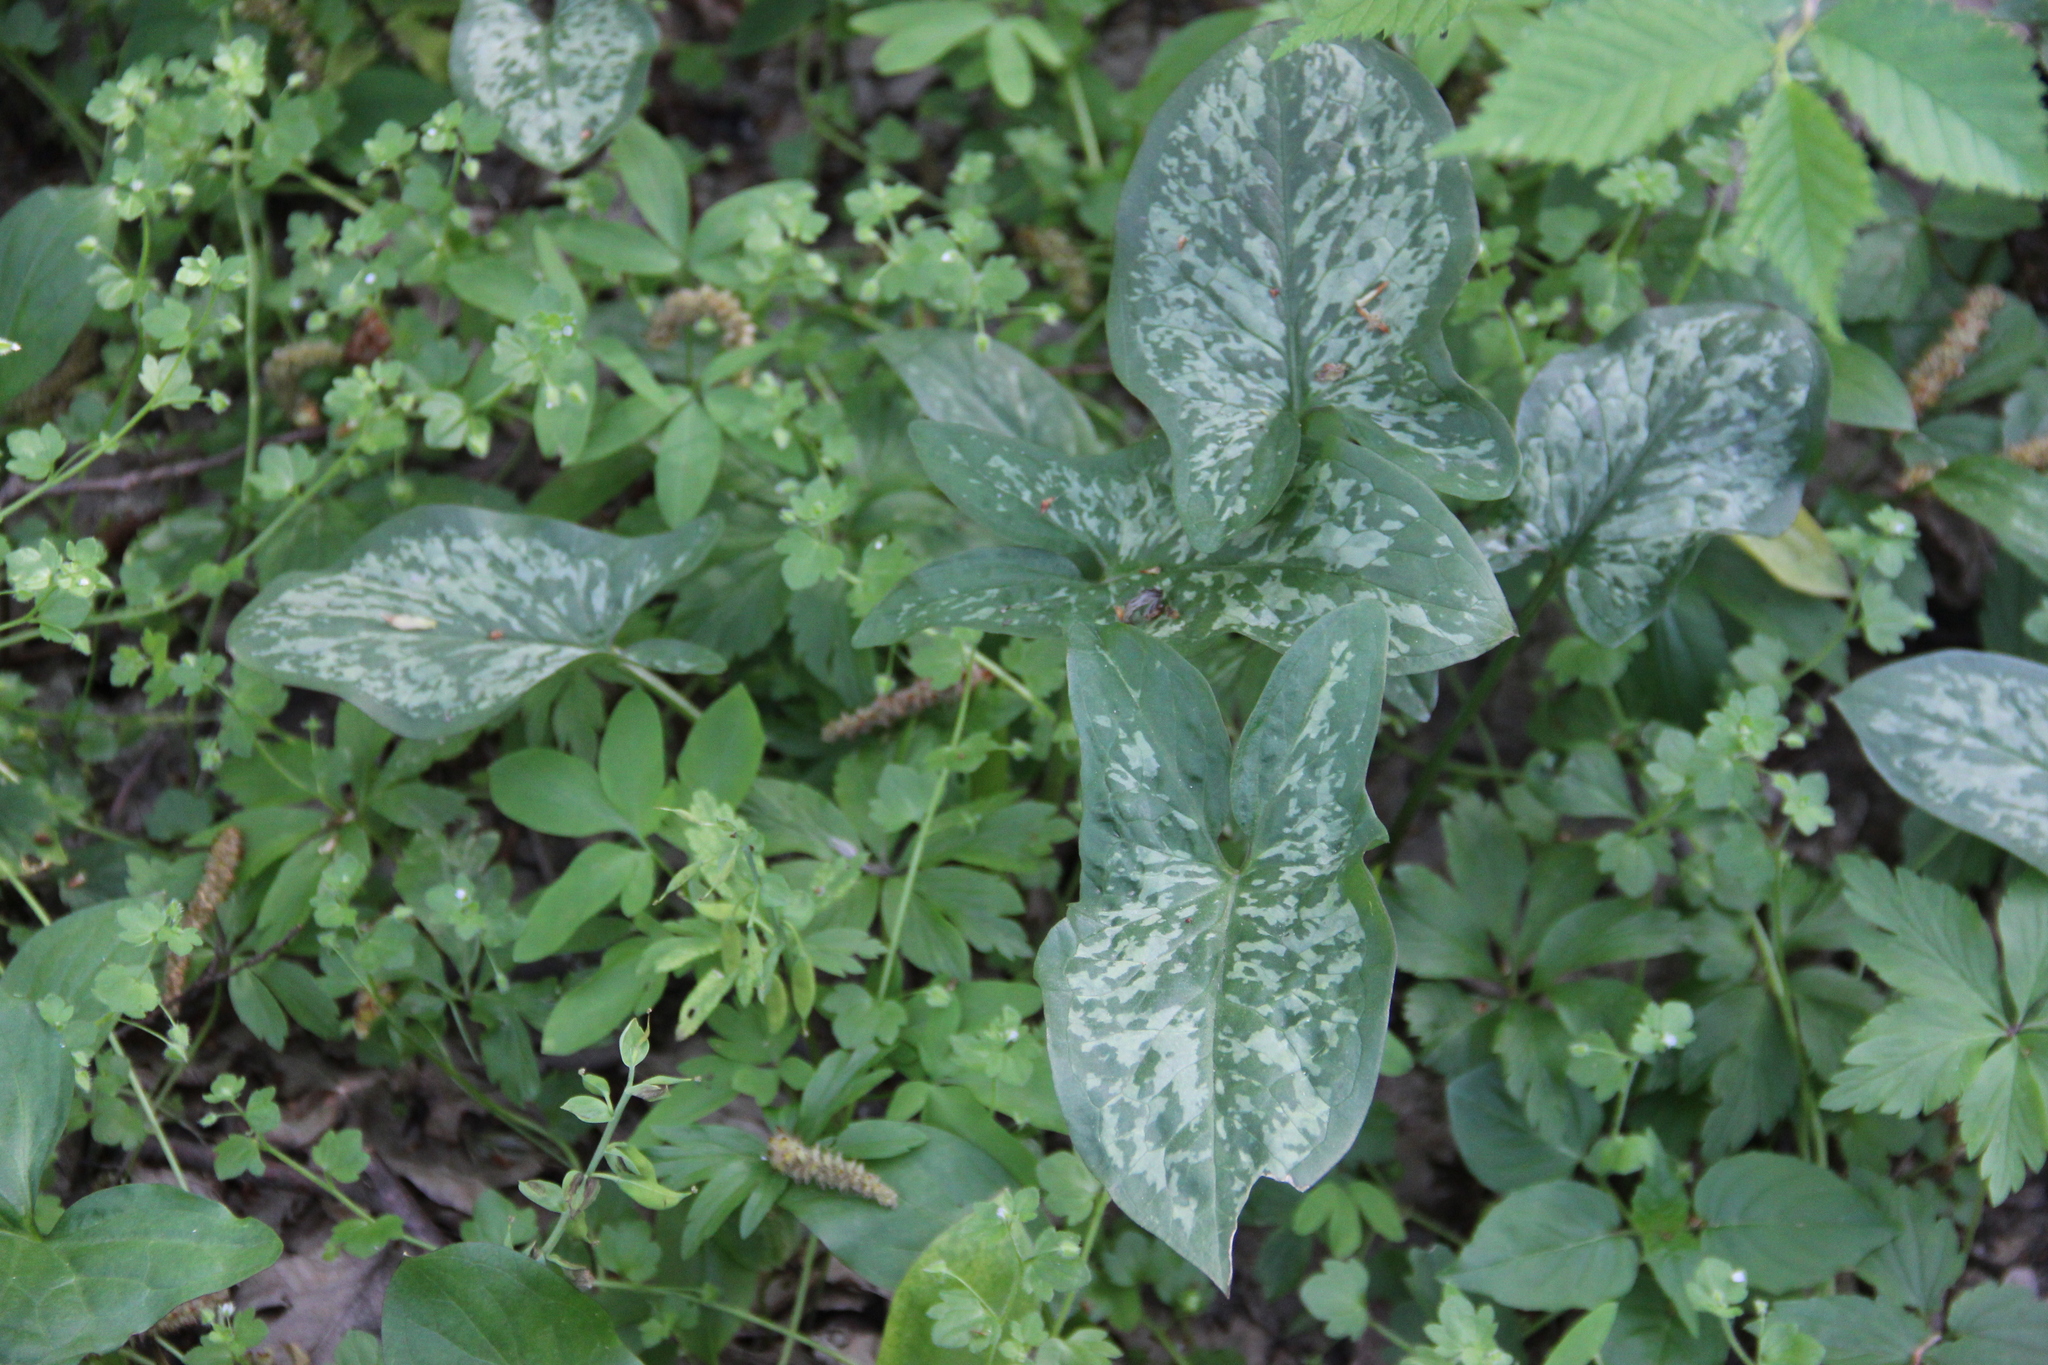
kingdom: Plantae
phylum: Tracheophyta
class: Liliopsida
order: Alismatales
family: Araceae
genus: Arum
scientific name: Arum italicum
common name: Italian lords-and-ladies
